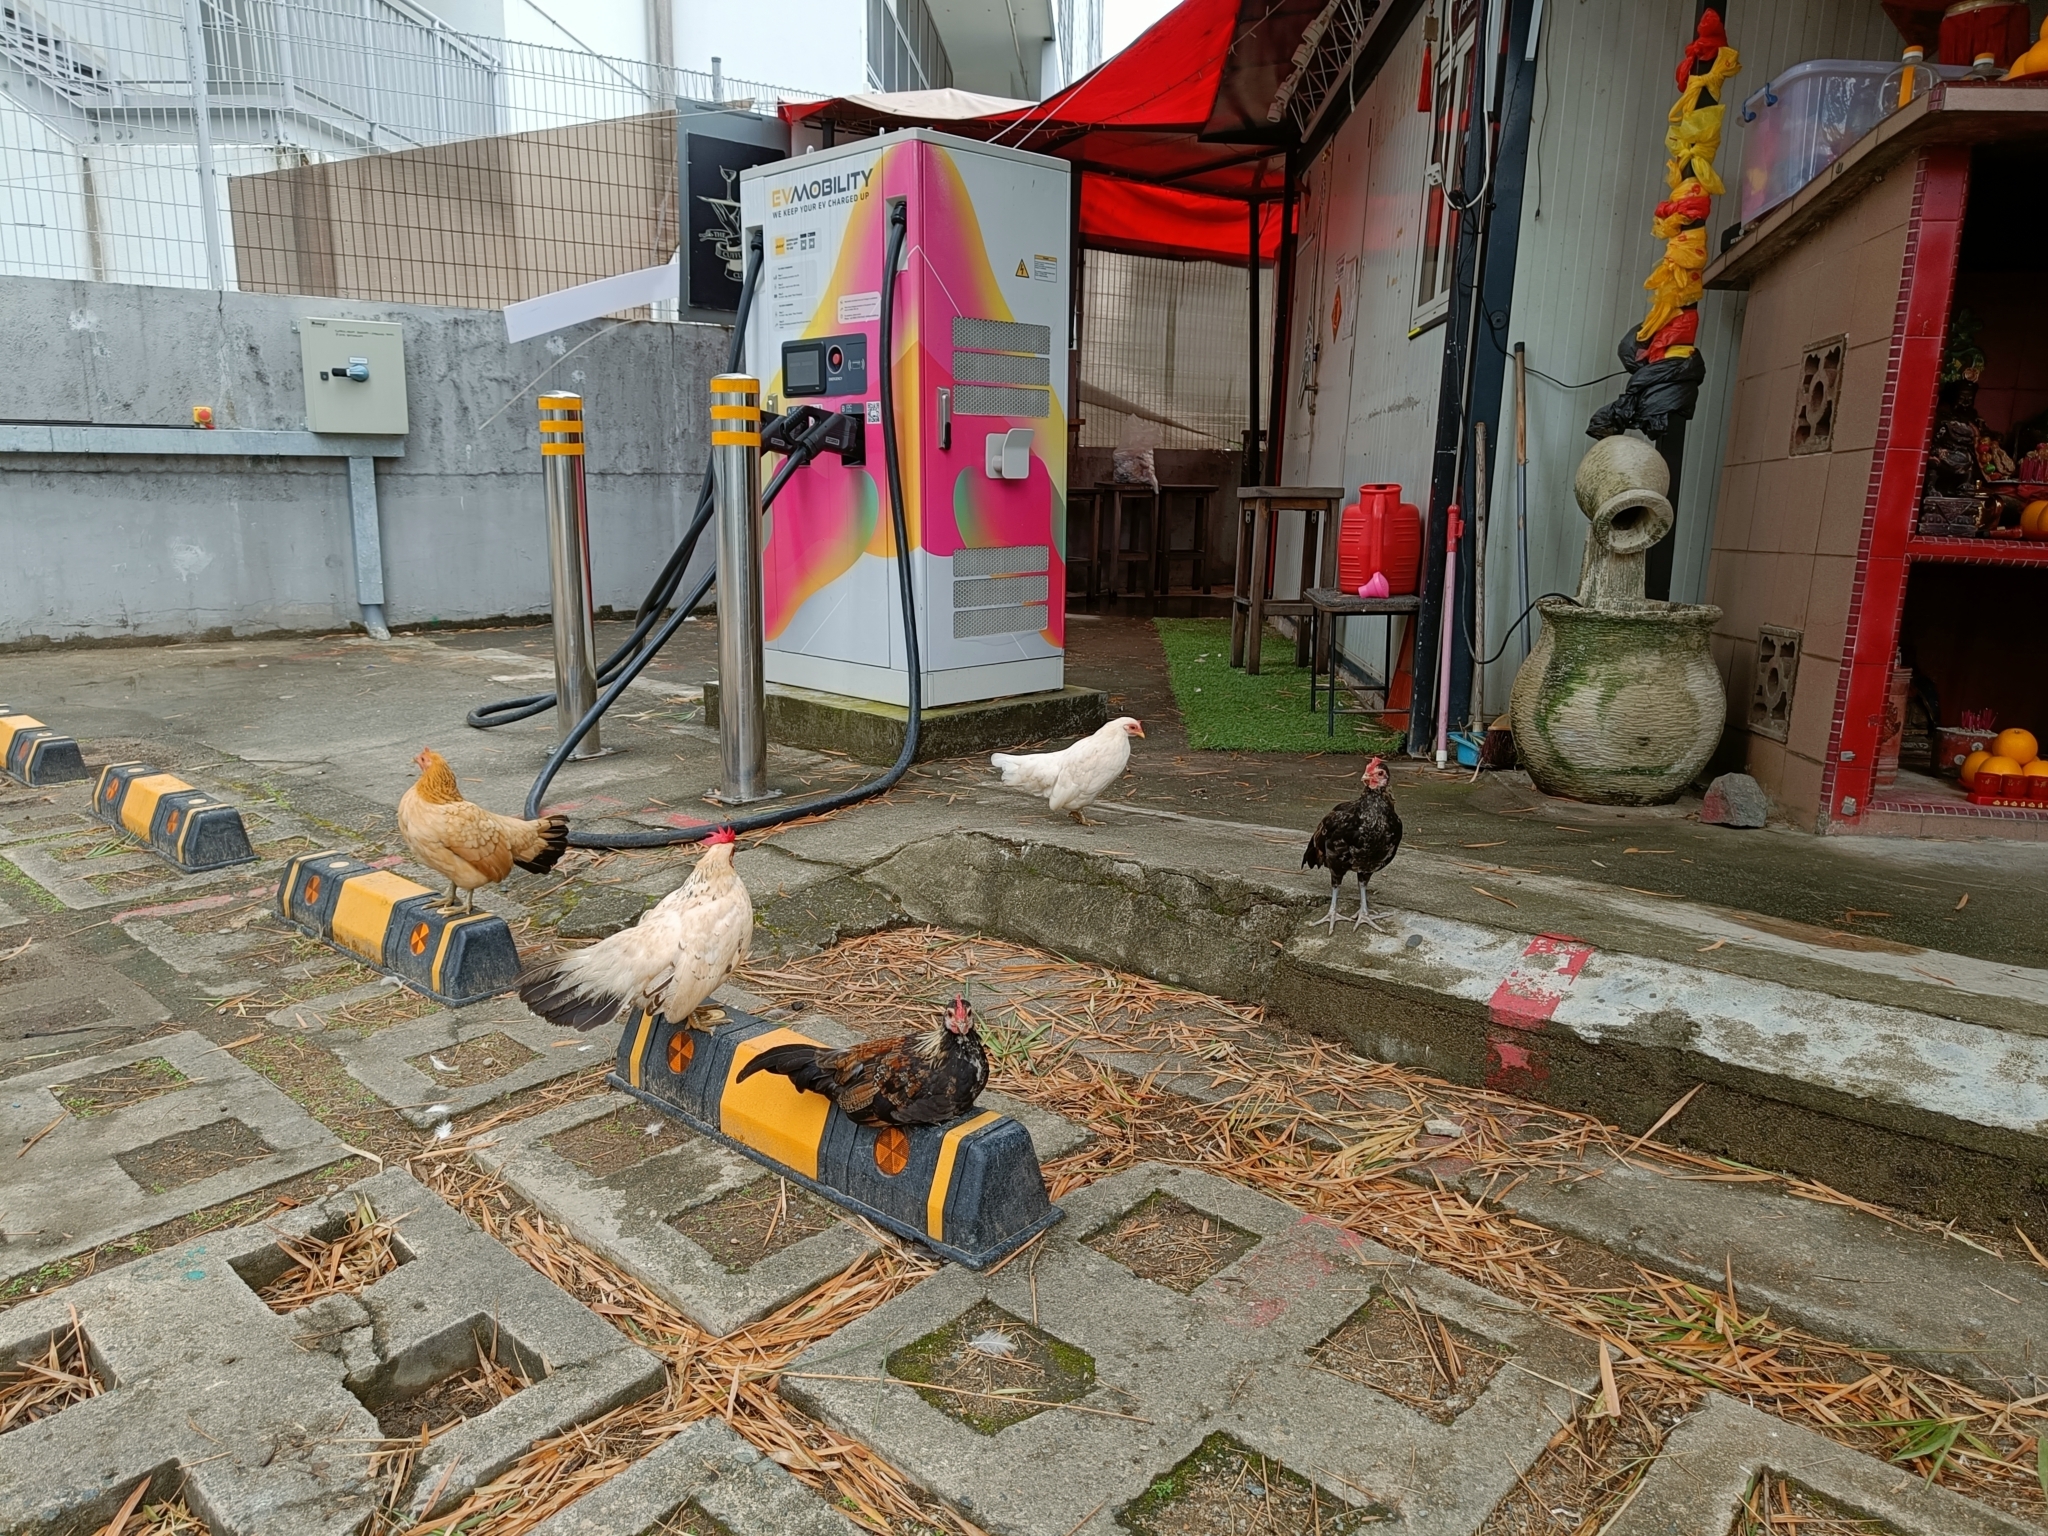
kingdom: Animalia
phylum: Chordata
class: Aves
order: Galliformes
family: Phasianidae
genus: Gallus
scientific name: Gallus gallus
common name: Red junglefowl
